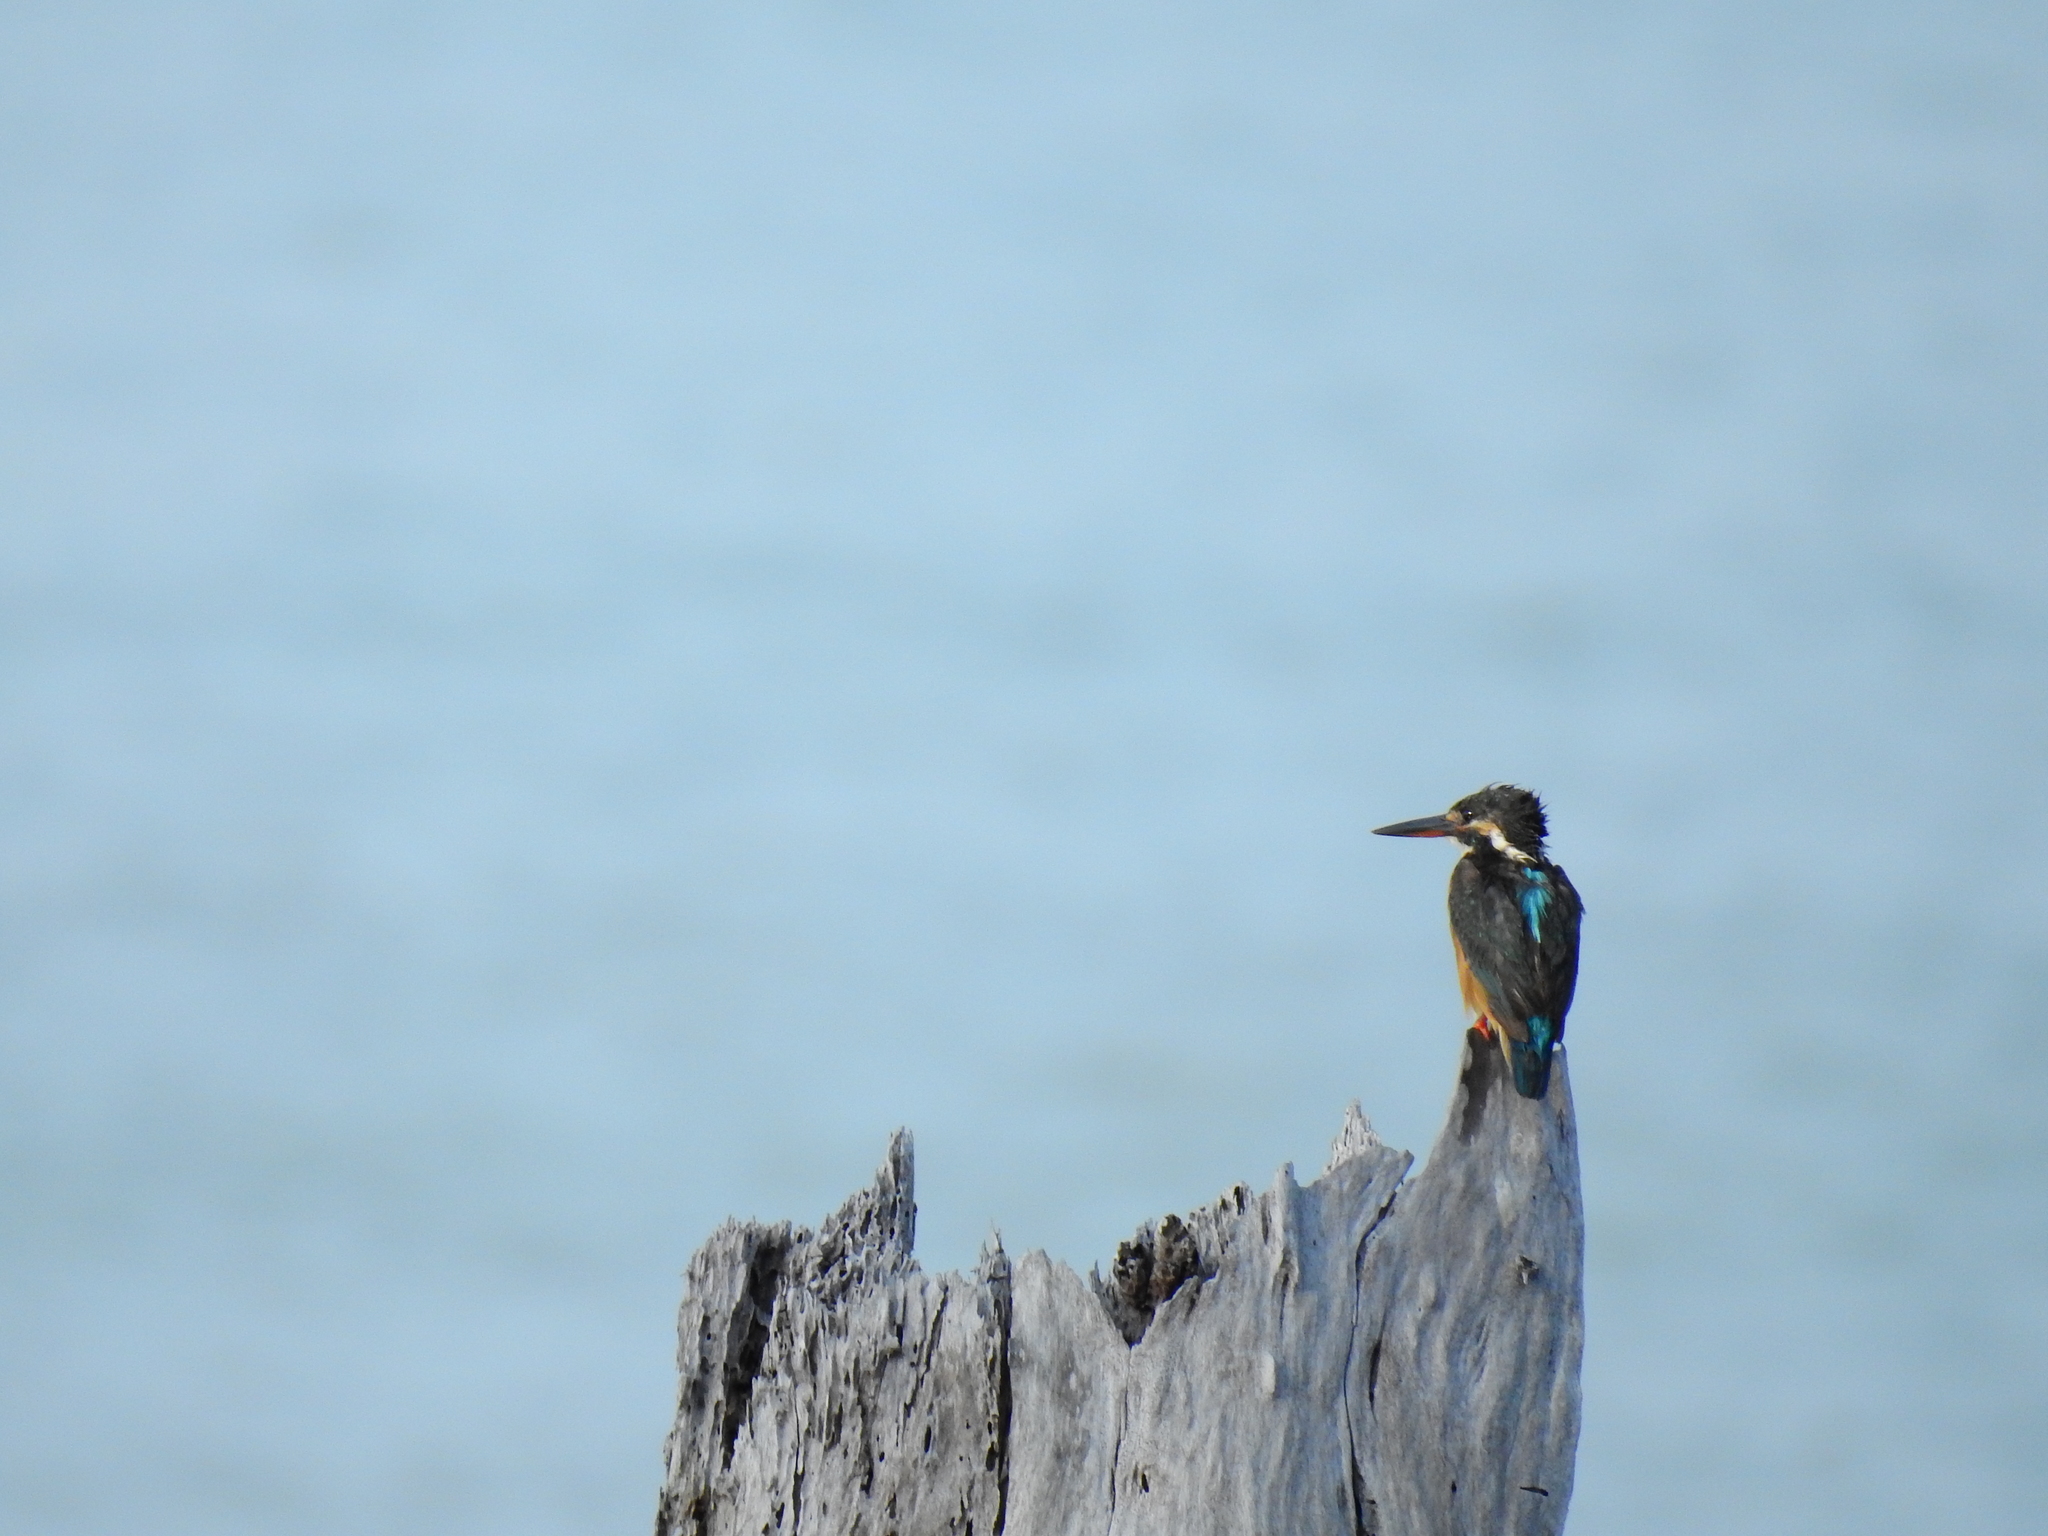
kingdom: Animalia
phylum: Chordata
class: Aves
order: Coraciiformes
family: Alcedinidae
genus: Alcedo
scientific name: Alcedo atthis
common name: Common kingfisher
